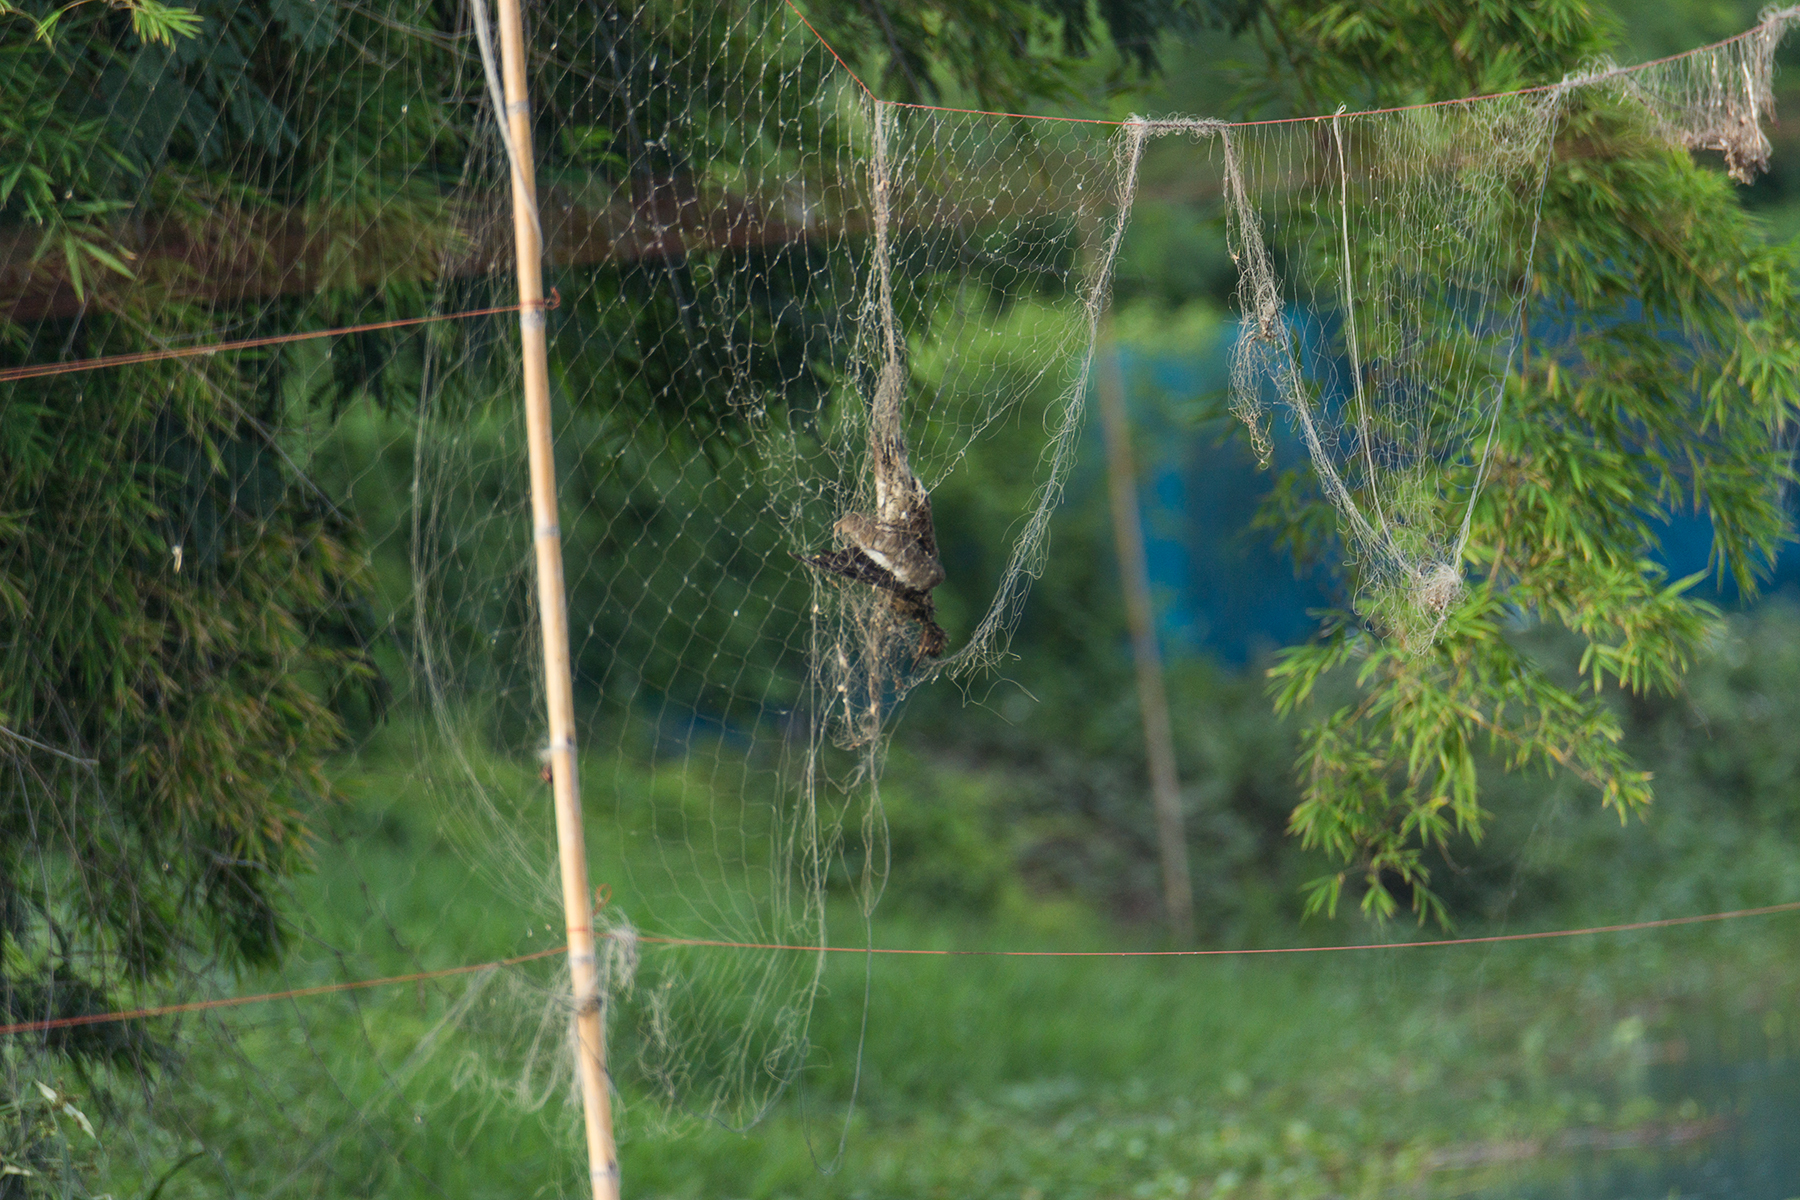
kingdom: Animalia
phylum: Chordata
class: Aves
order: Charadriiformes
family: Charadriidae
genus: Vanellus
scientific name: Vanellus indicus
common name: Red-wattled lapwing
